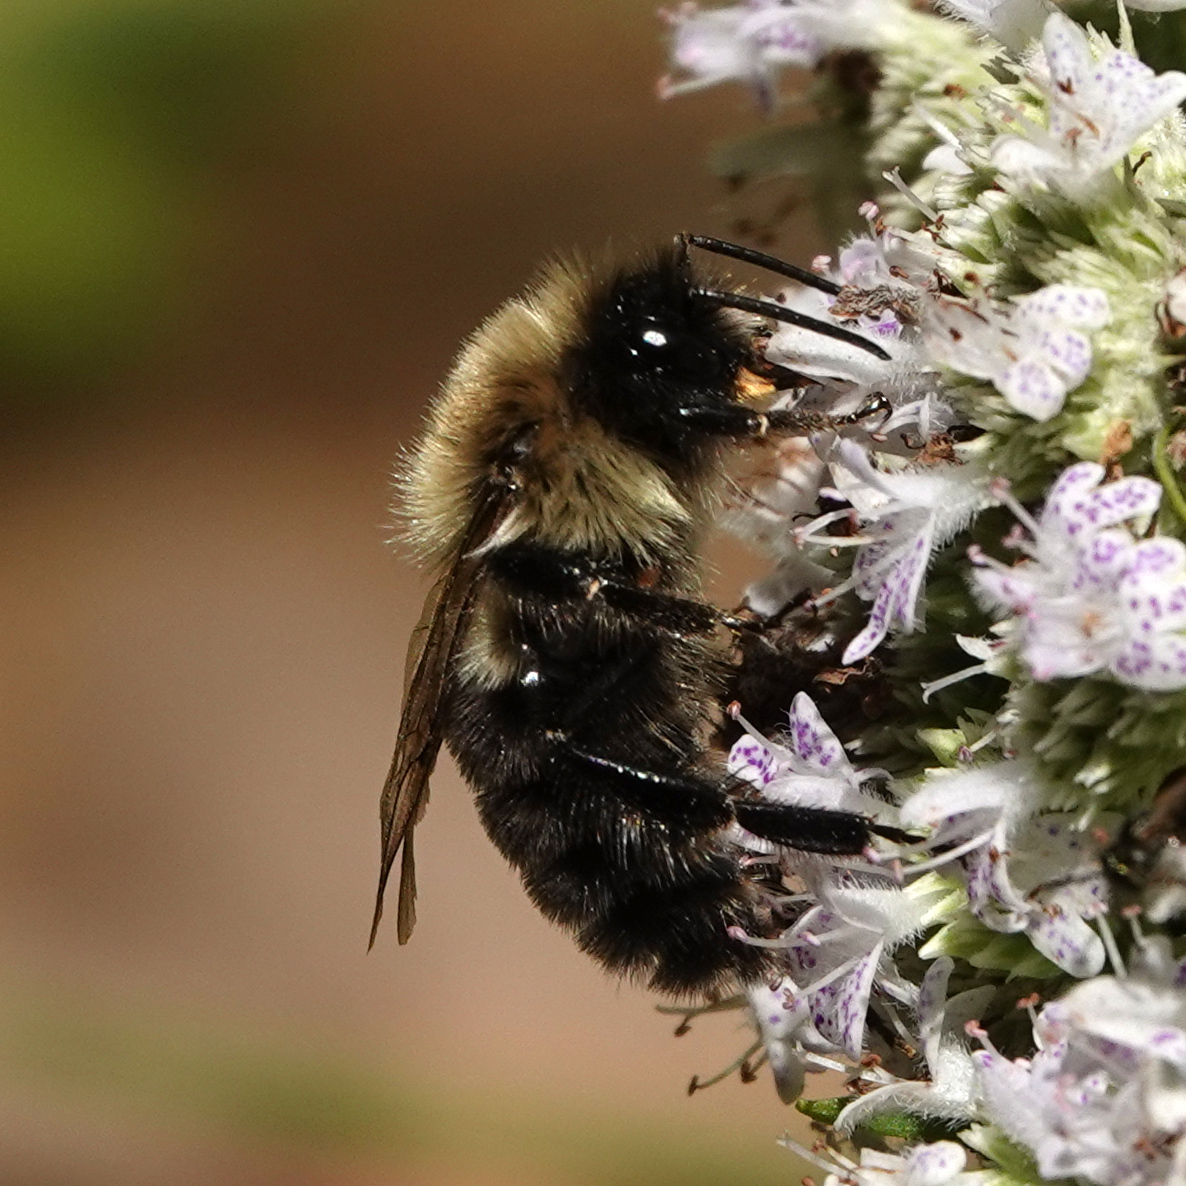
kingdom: Animalia
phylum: Arthropoda
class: Insecta
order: Hymenoptera
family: Apidae
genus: Bombus
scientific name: Bombus impatiens
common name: Common eastern bumble bee
